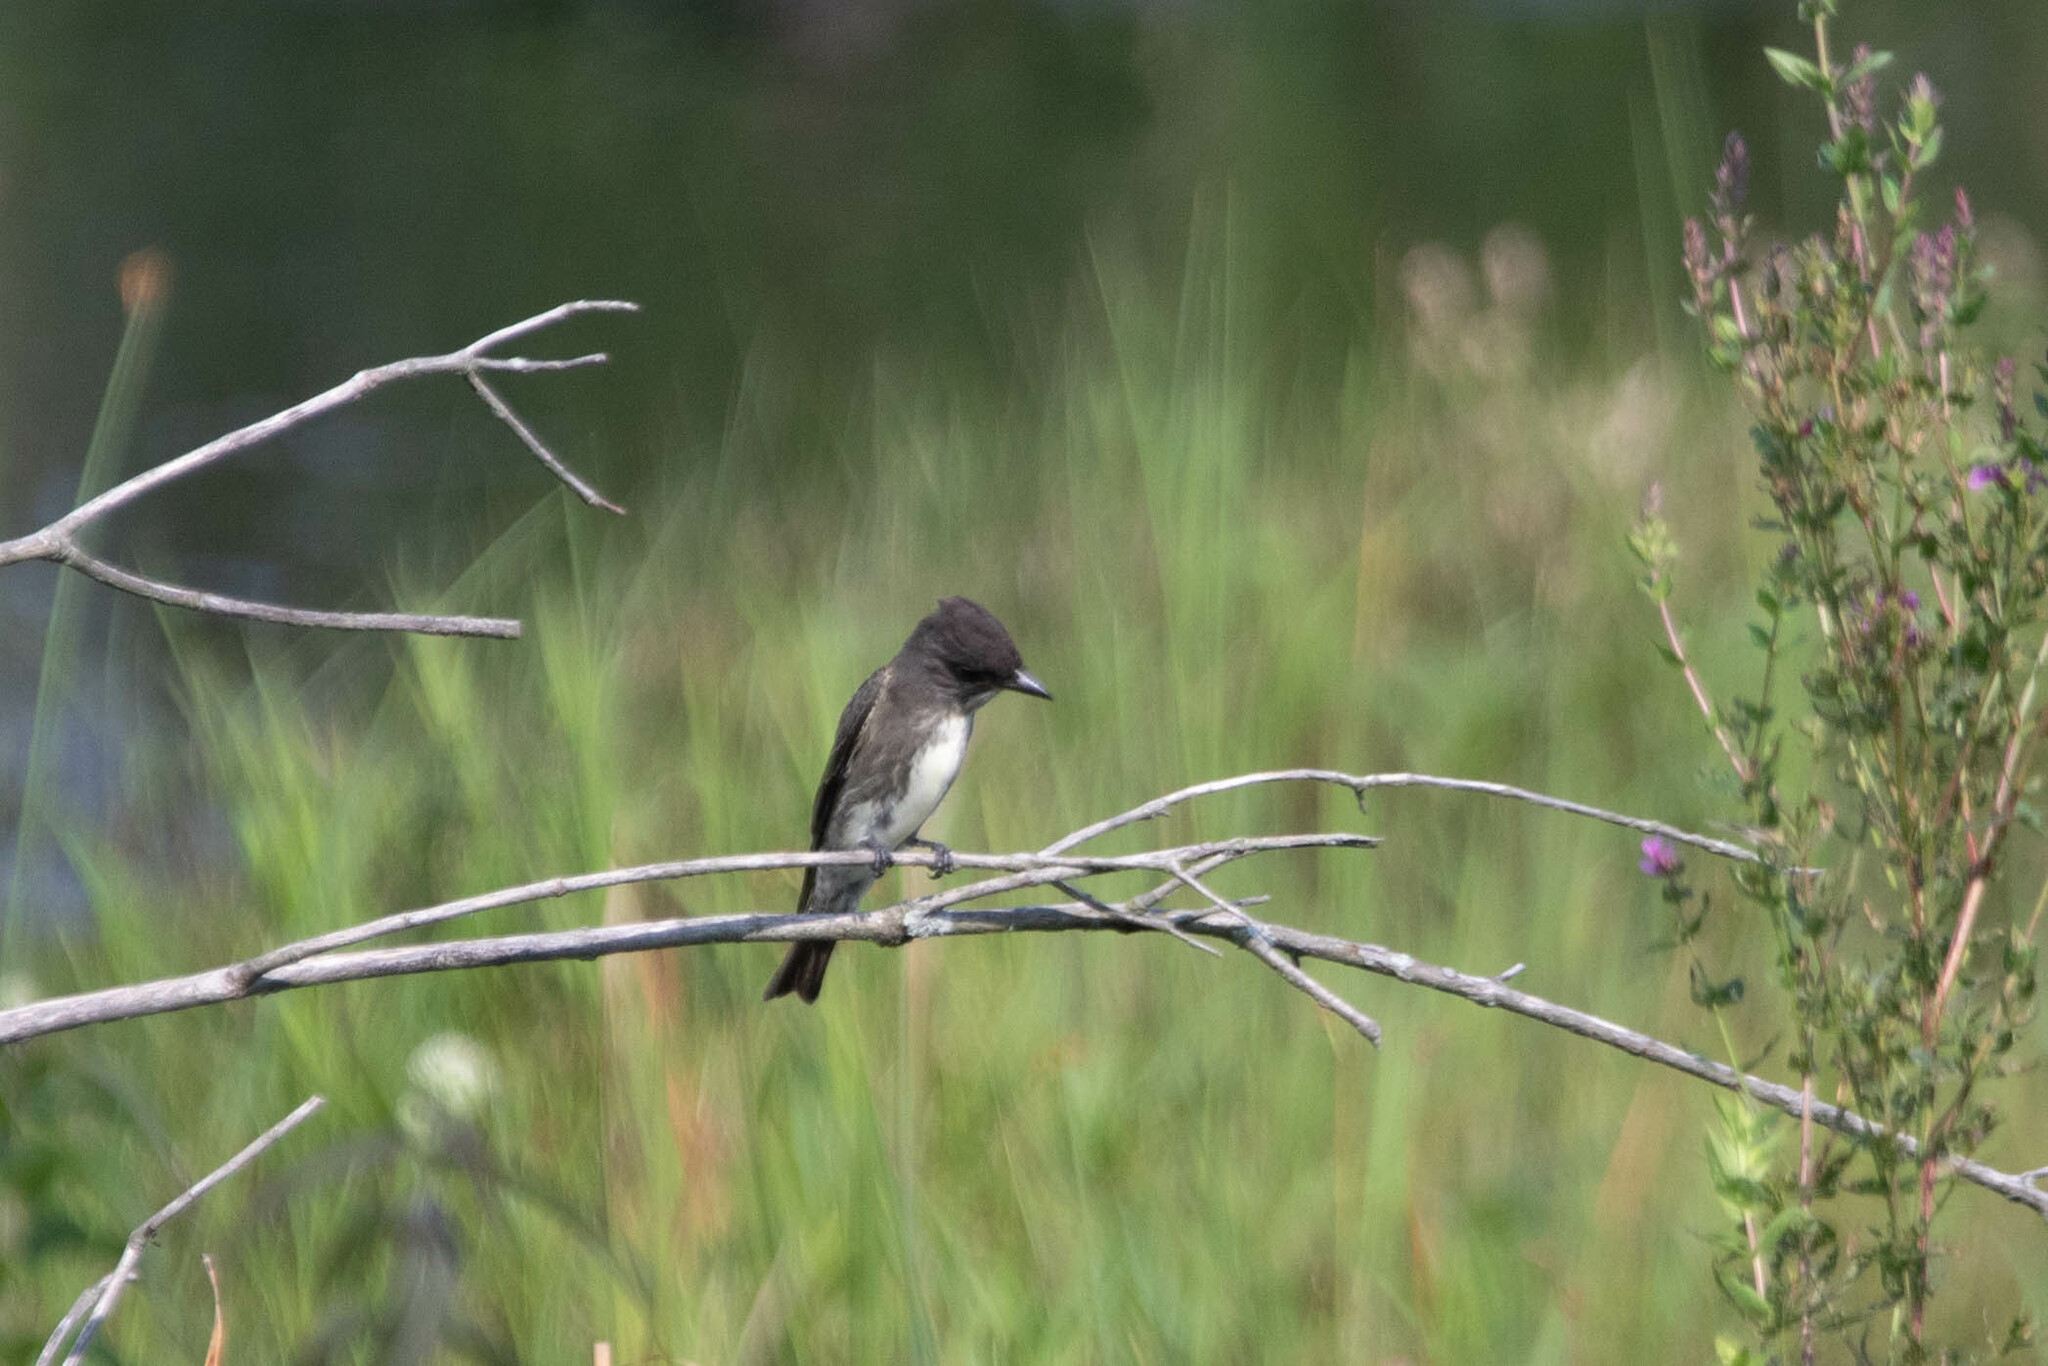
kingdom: Animalia
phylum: Chordata
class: Aves
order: Passeriformes
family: Tyrannidae
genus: Contopus
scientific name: Contopus cooperi
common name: Olive-sided flycatcher
